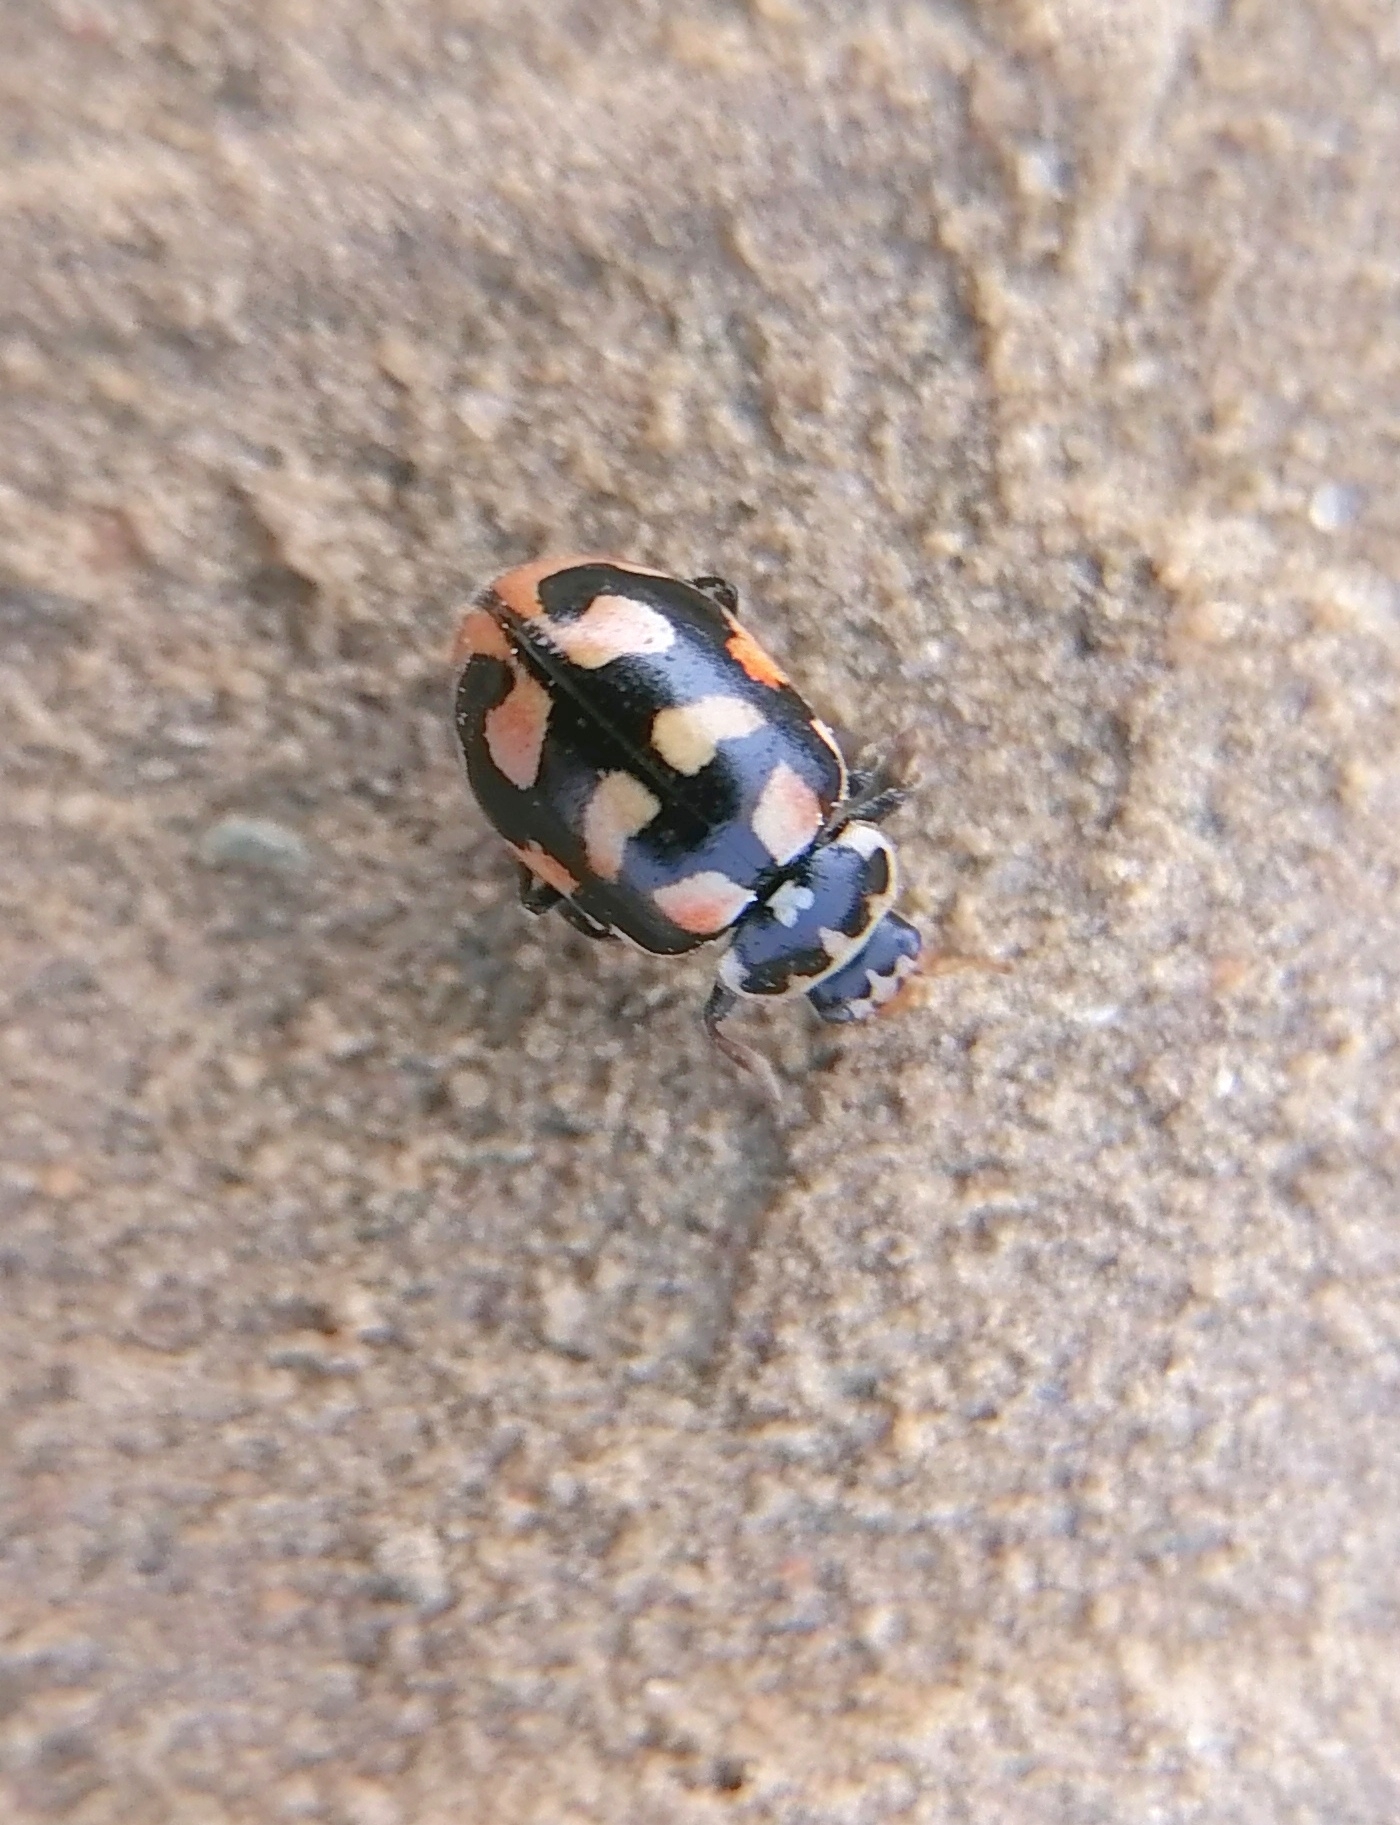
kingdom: Animalia
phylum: Arthropoda
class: Insecta
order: Coleoptera
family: Coccinellidae
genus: Hippodamia
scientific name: Hippodamia arctica
